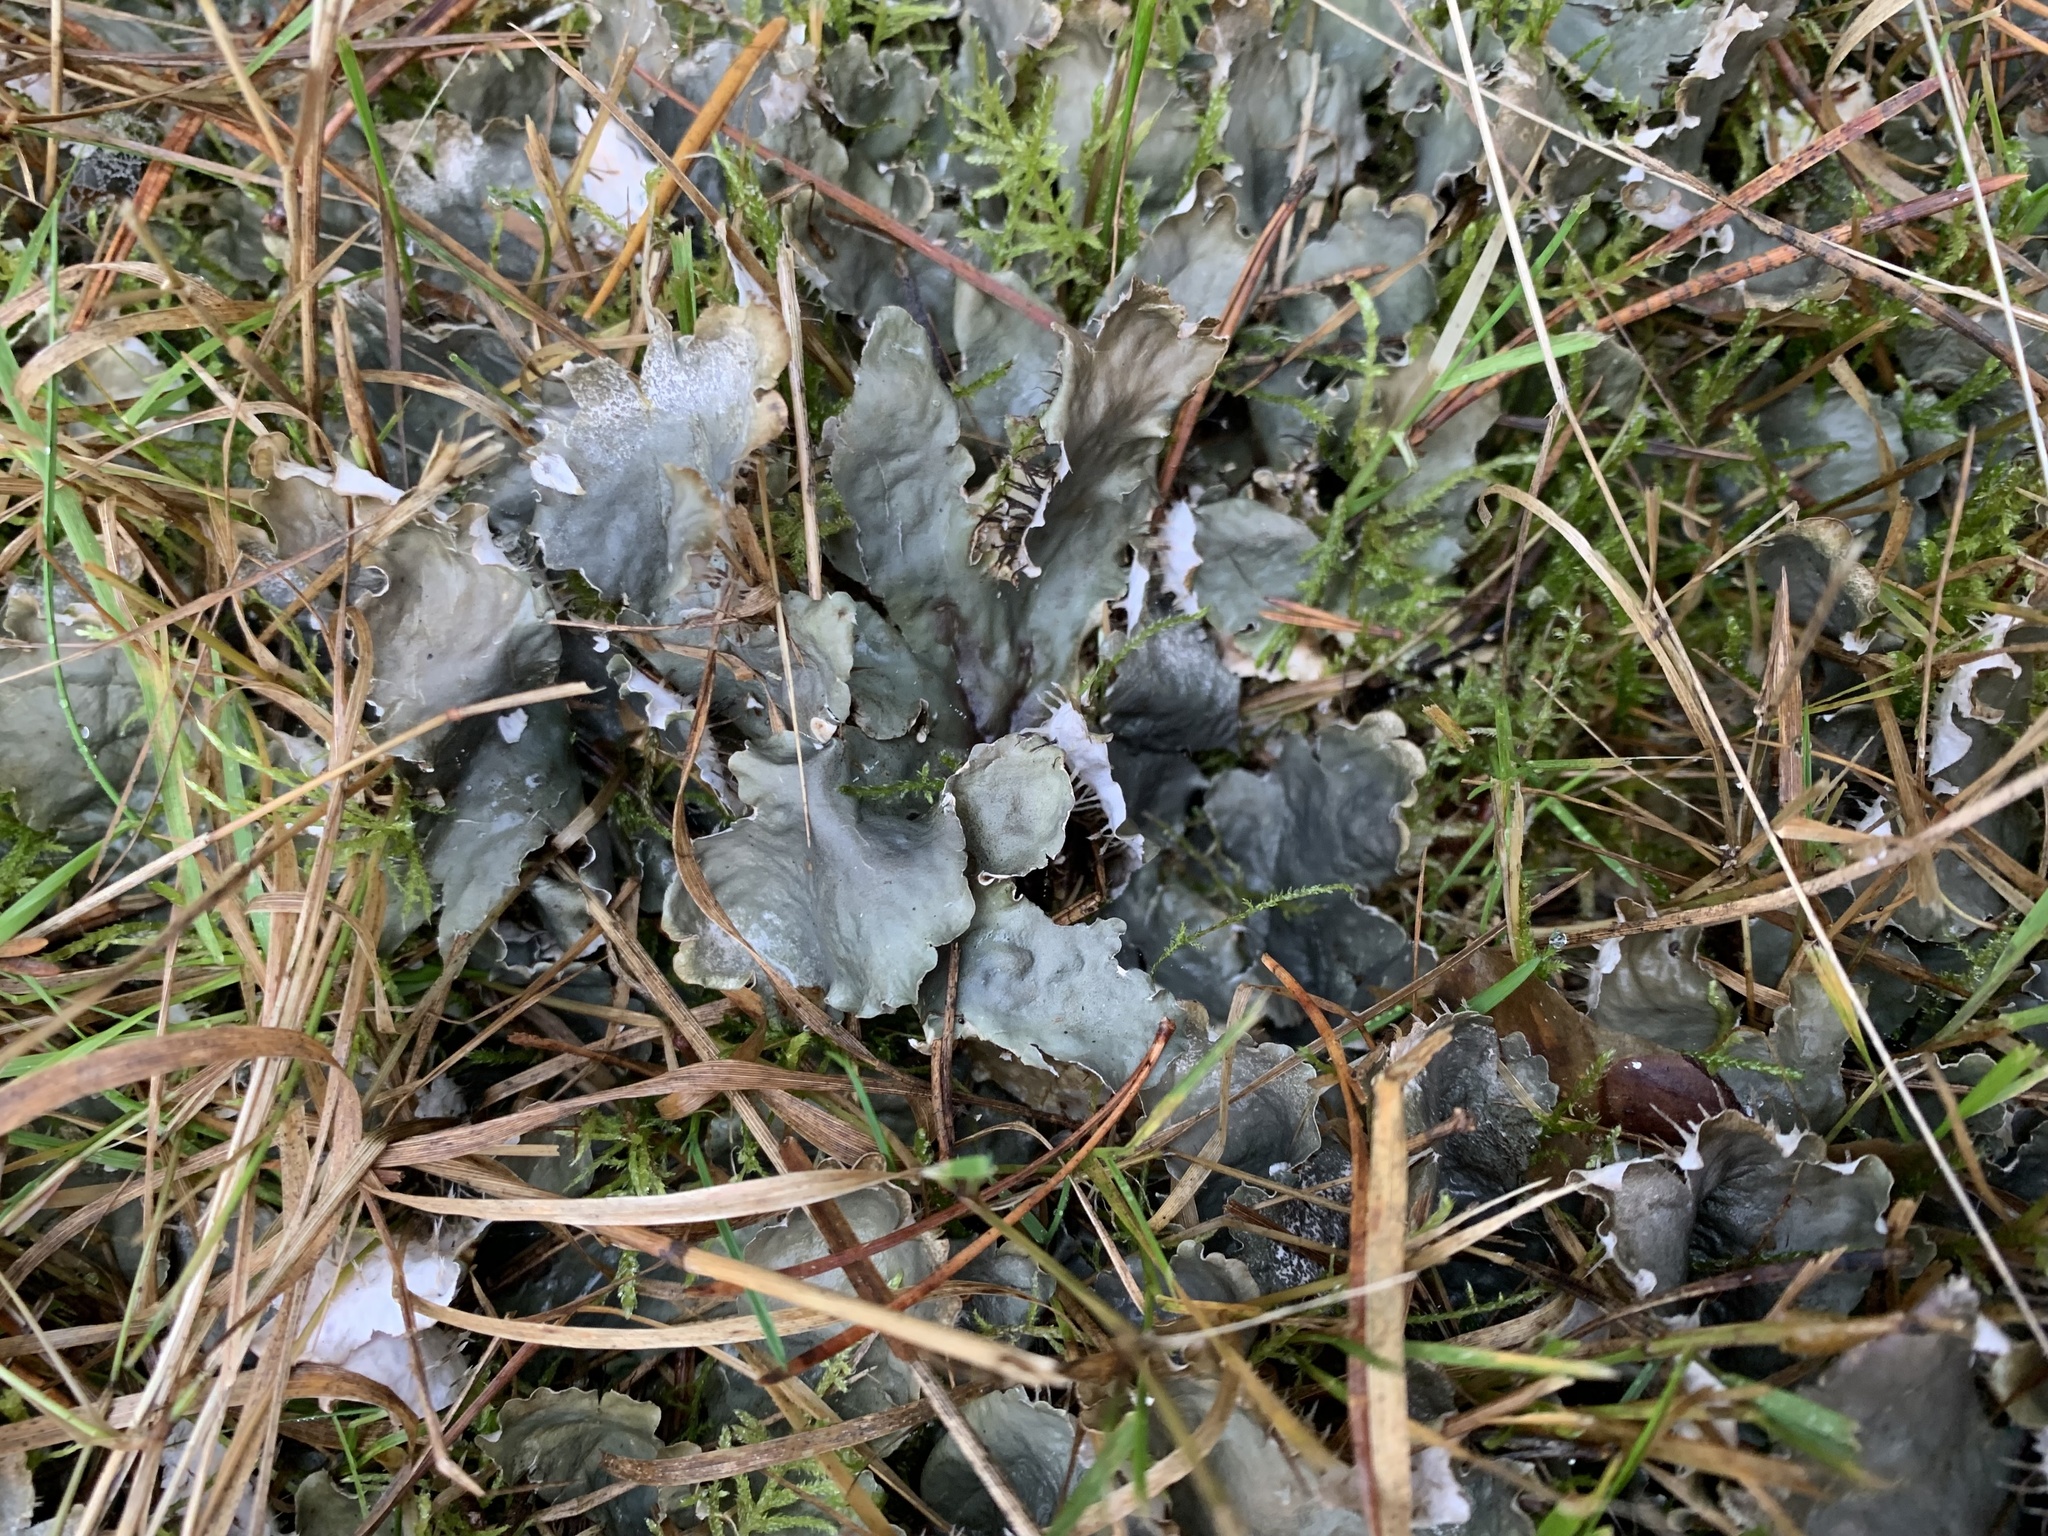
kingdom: Fungi
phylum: Ascomycota
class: Lecanoromycetes
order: Peltigerales
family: Peltigeraceae
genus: Peltigera
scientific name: Peltigera hymenina
